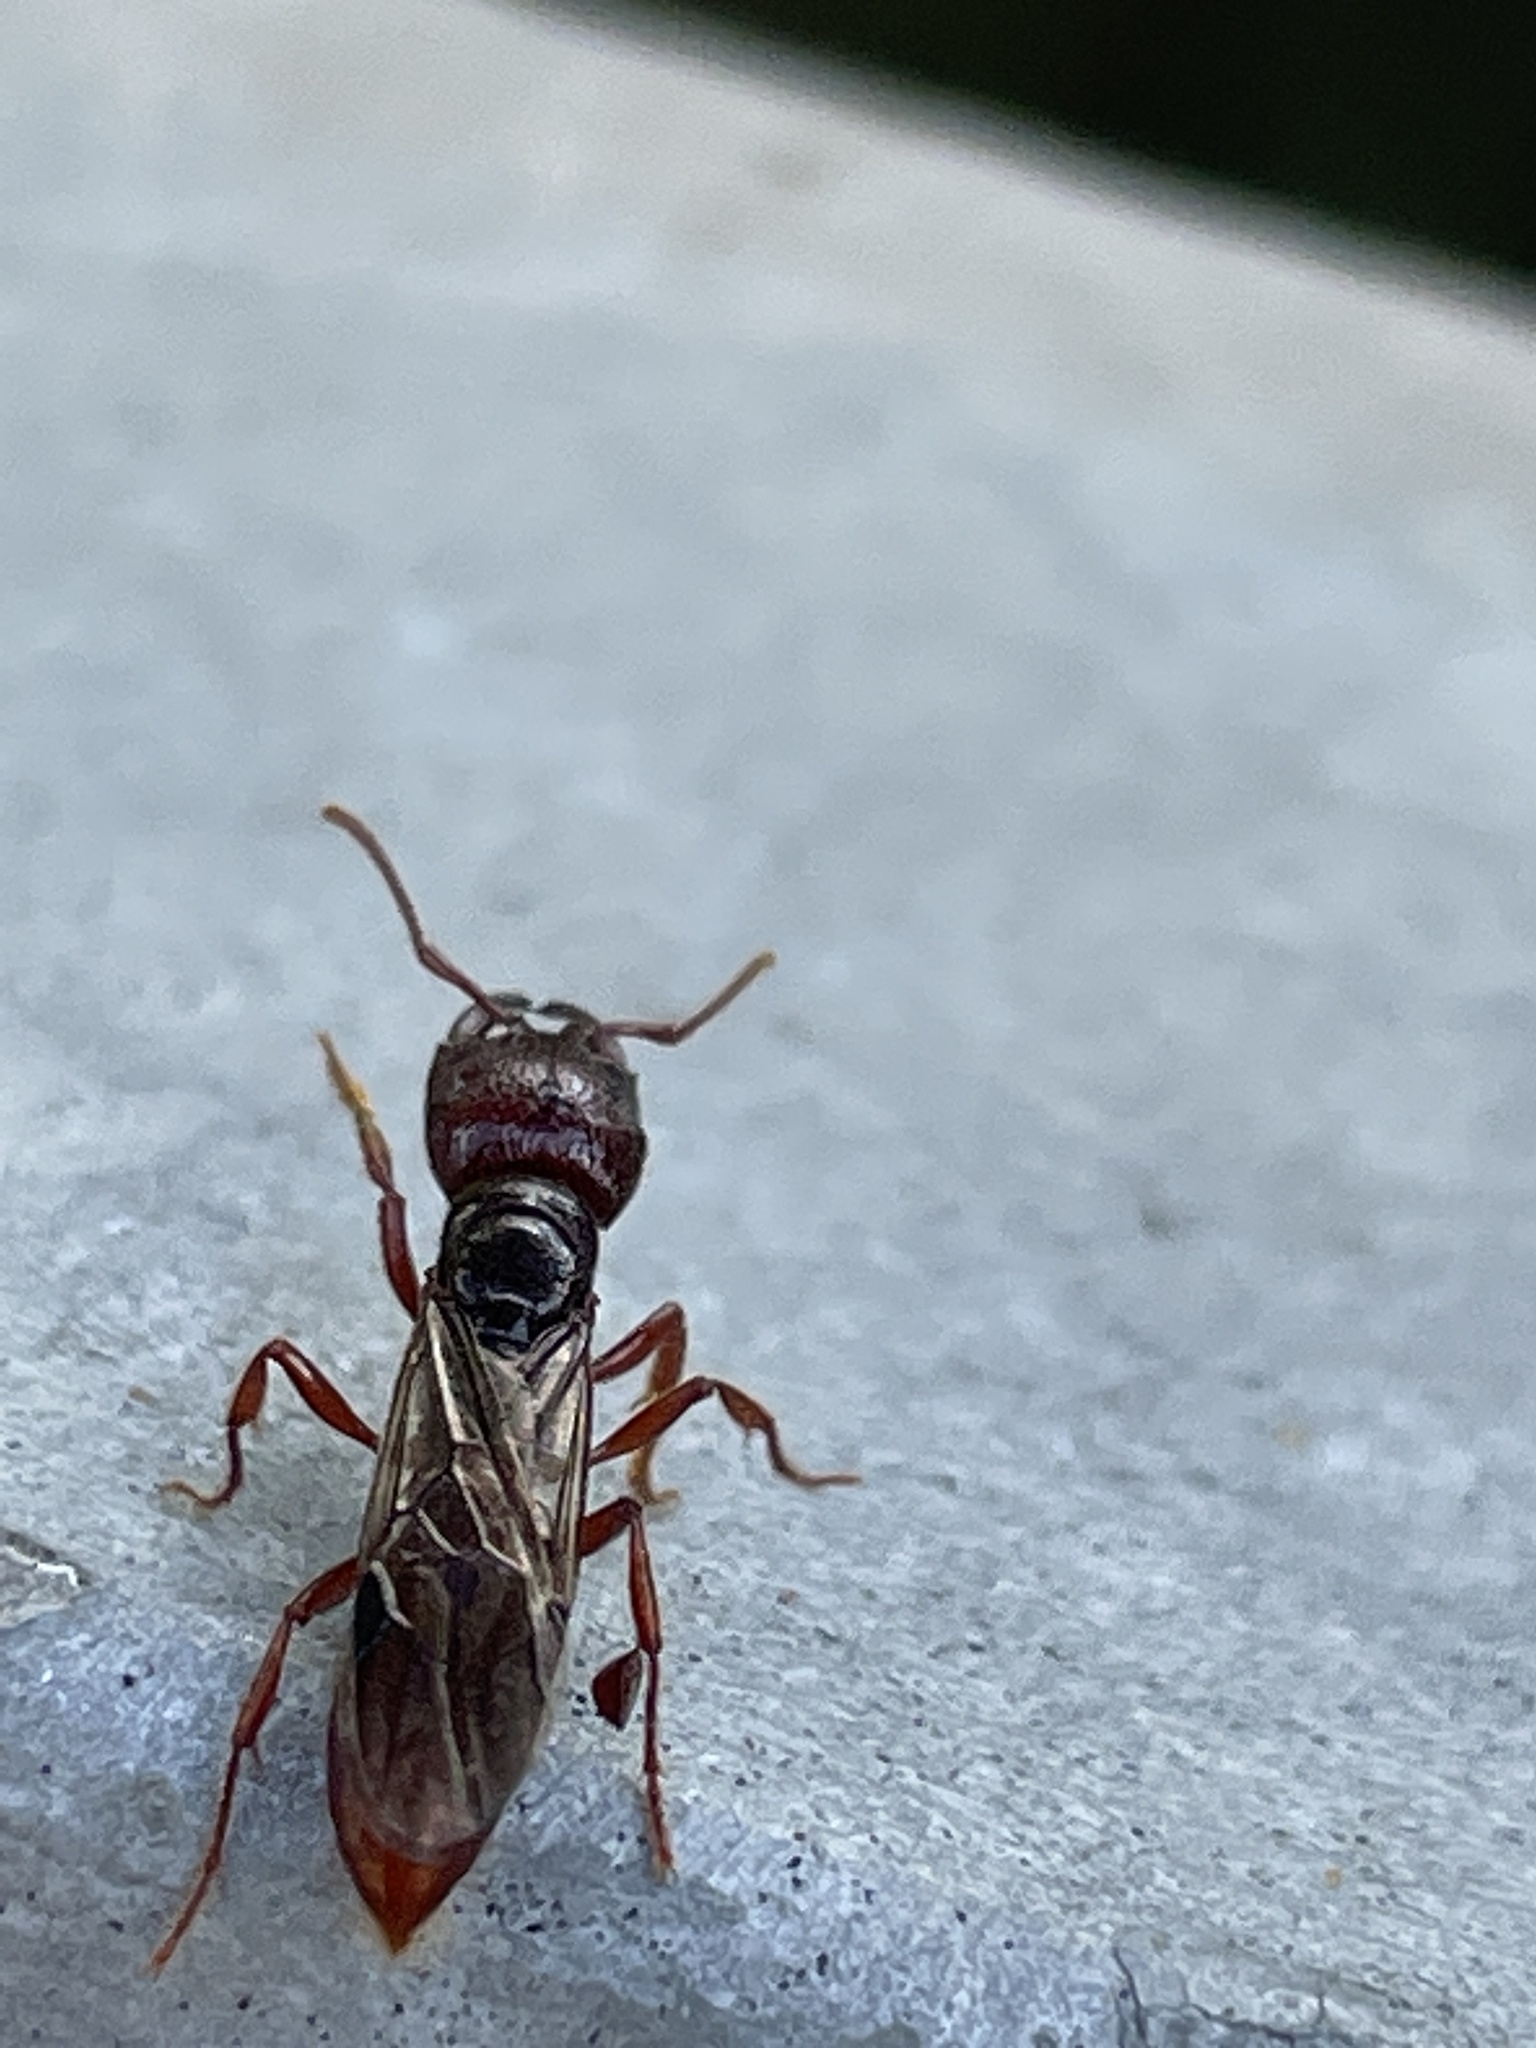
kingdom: Animalia
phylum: Arthropoda
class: Insecta
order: Hymenoptera
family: Formicidae
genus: Amblyopone
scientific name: Amblyopone australis
